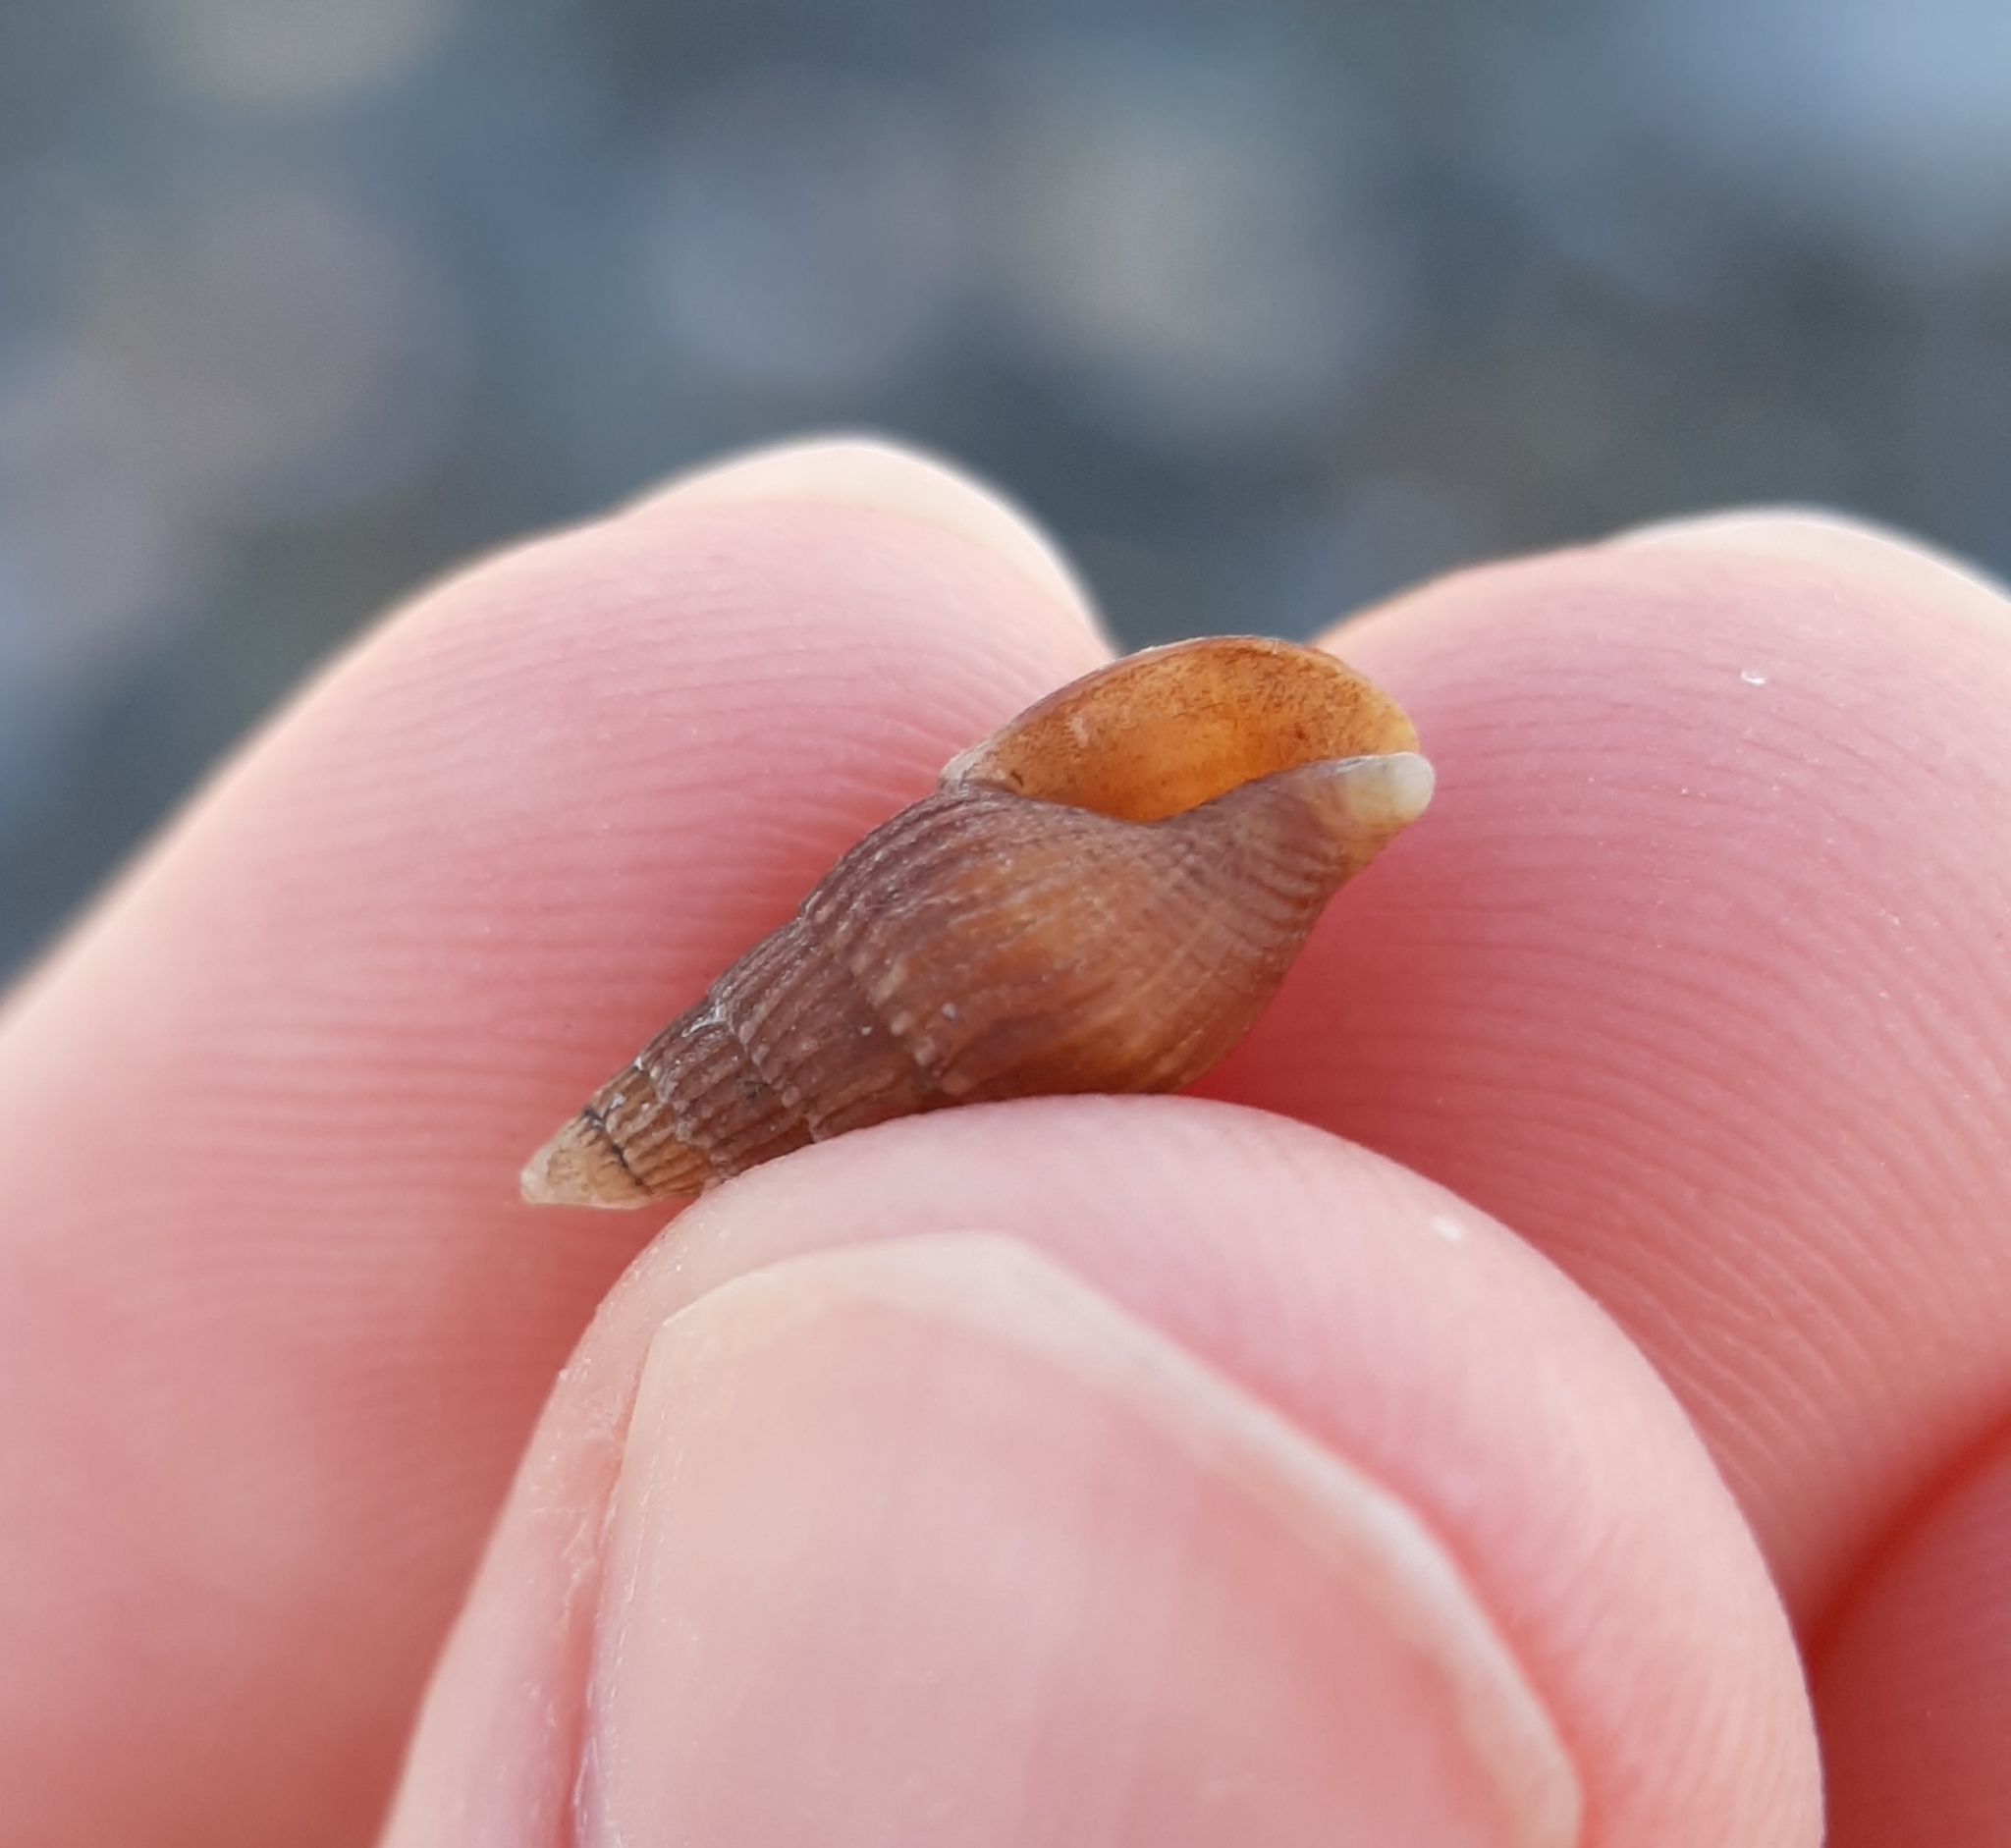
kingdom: Animalia
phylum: Mollusca
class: Gastropoda
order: Neogastropoda
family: Columbellidae
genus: Costoanachis
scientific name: Costoanachis translirata
